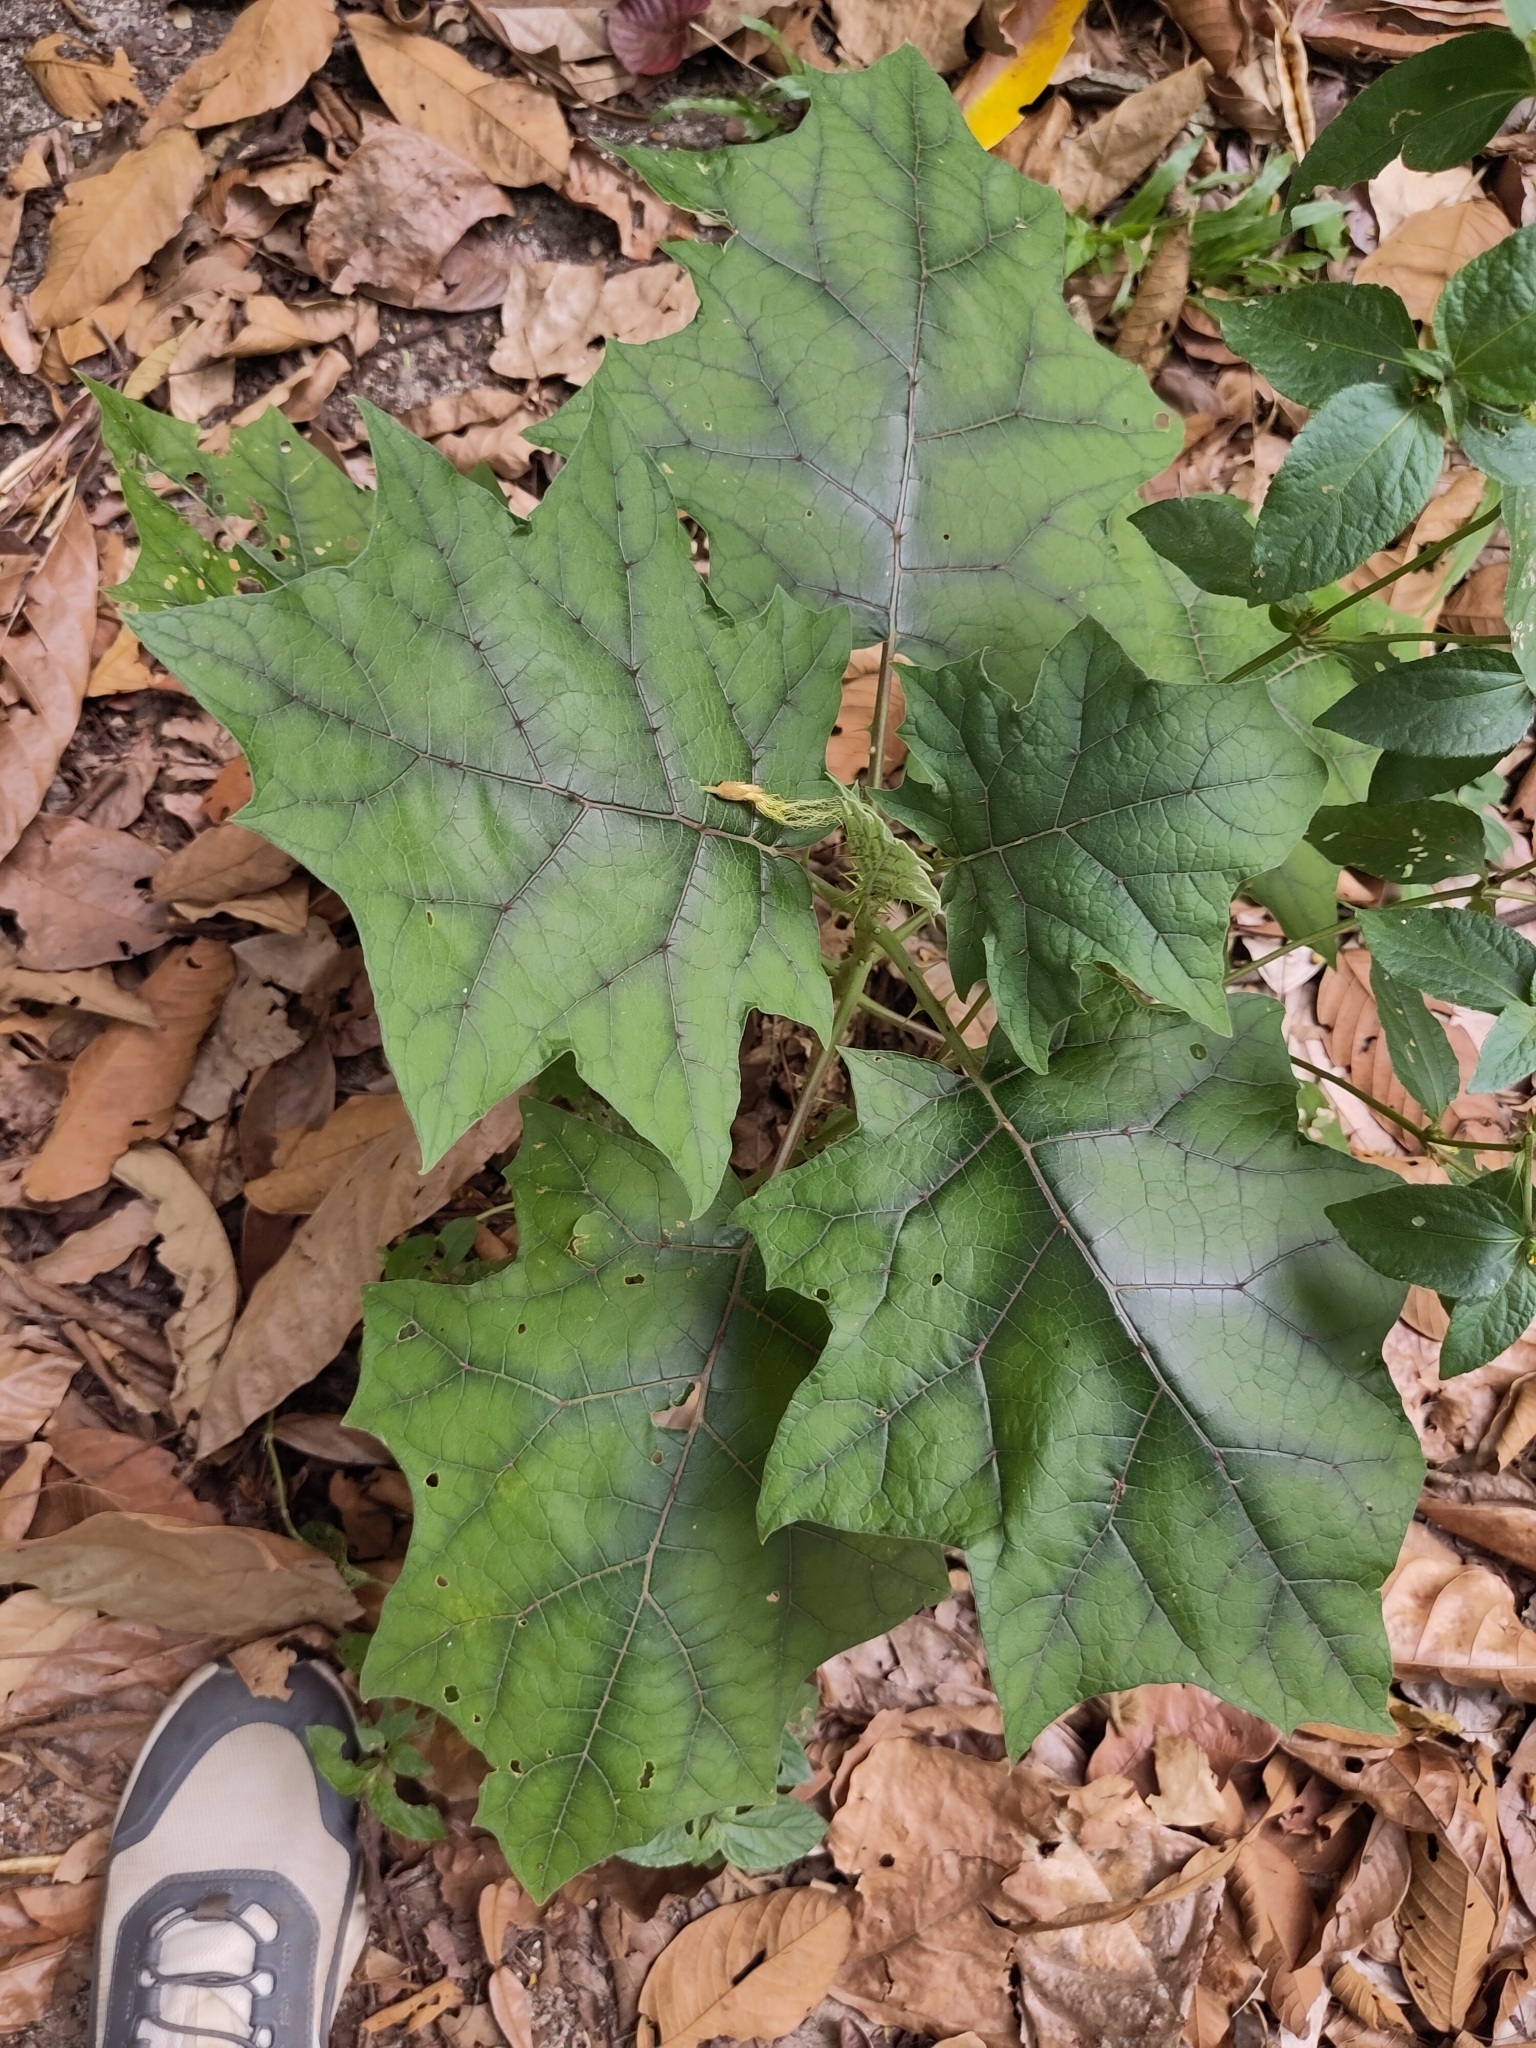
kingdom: Plantae
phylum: Tracheophyta
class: Magnoliopsida
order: Solanales
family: Solanaceae
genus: Solanum
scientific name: Solanum
